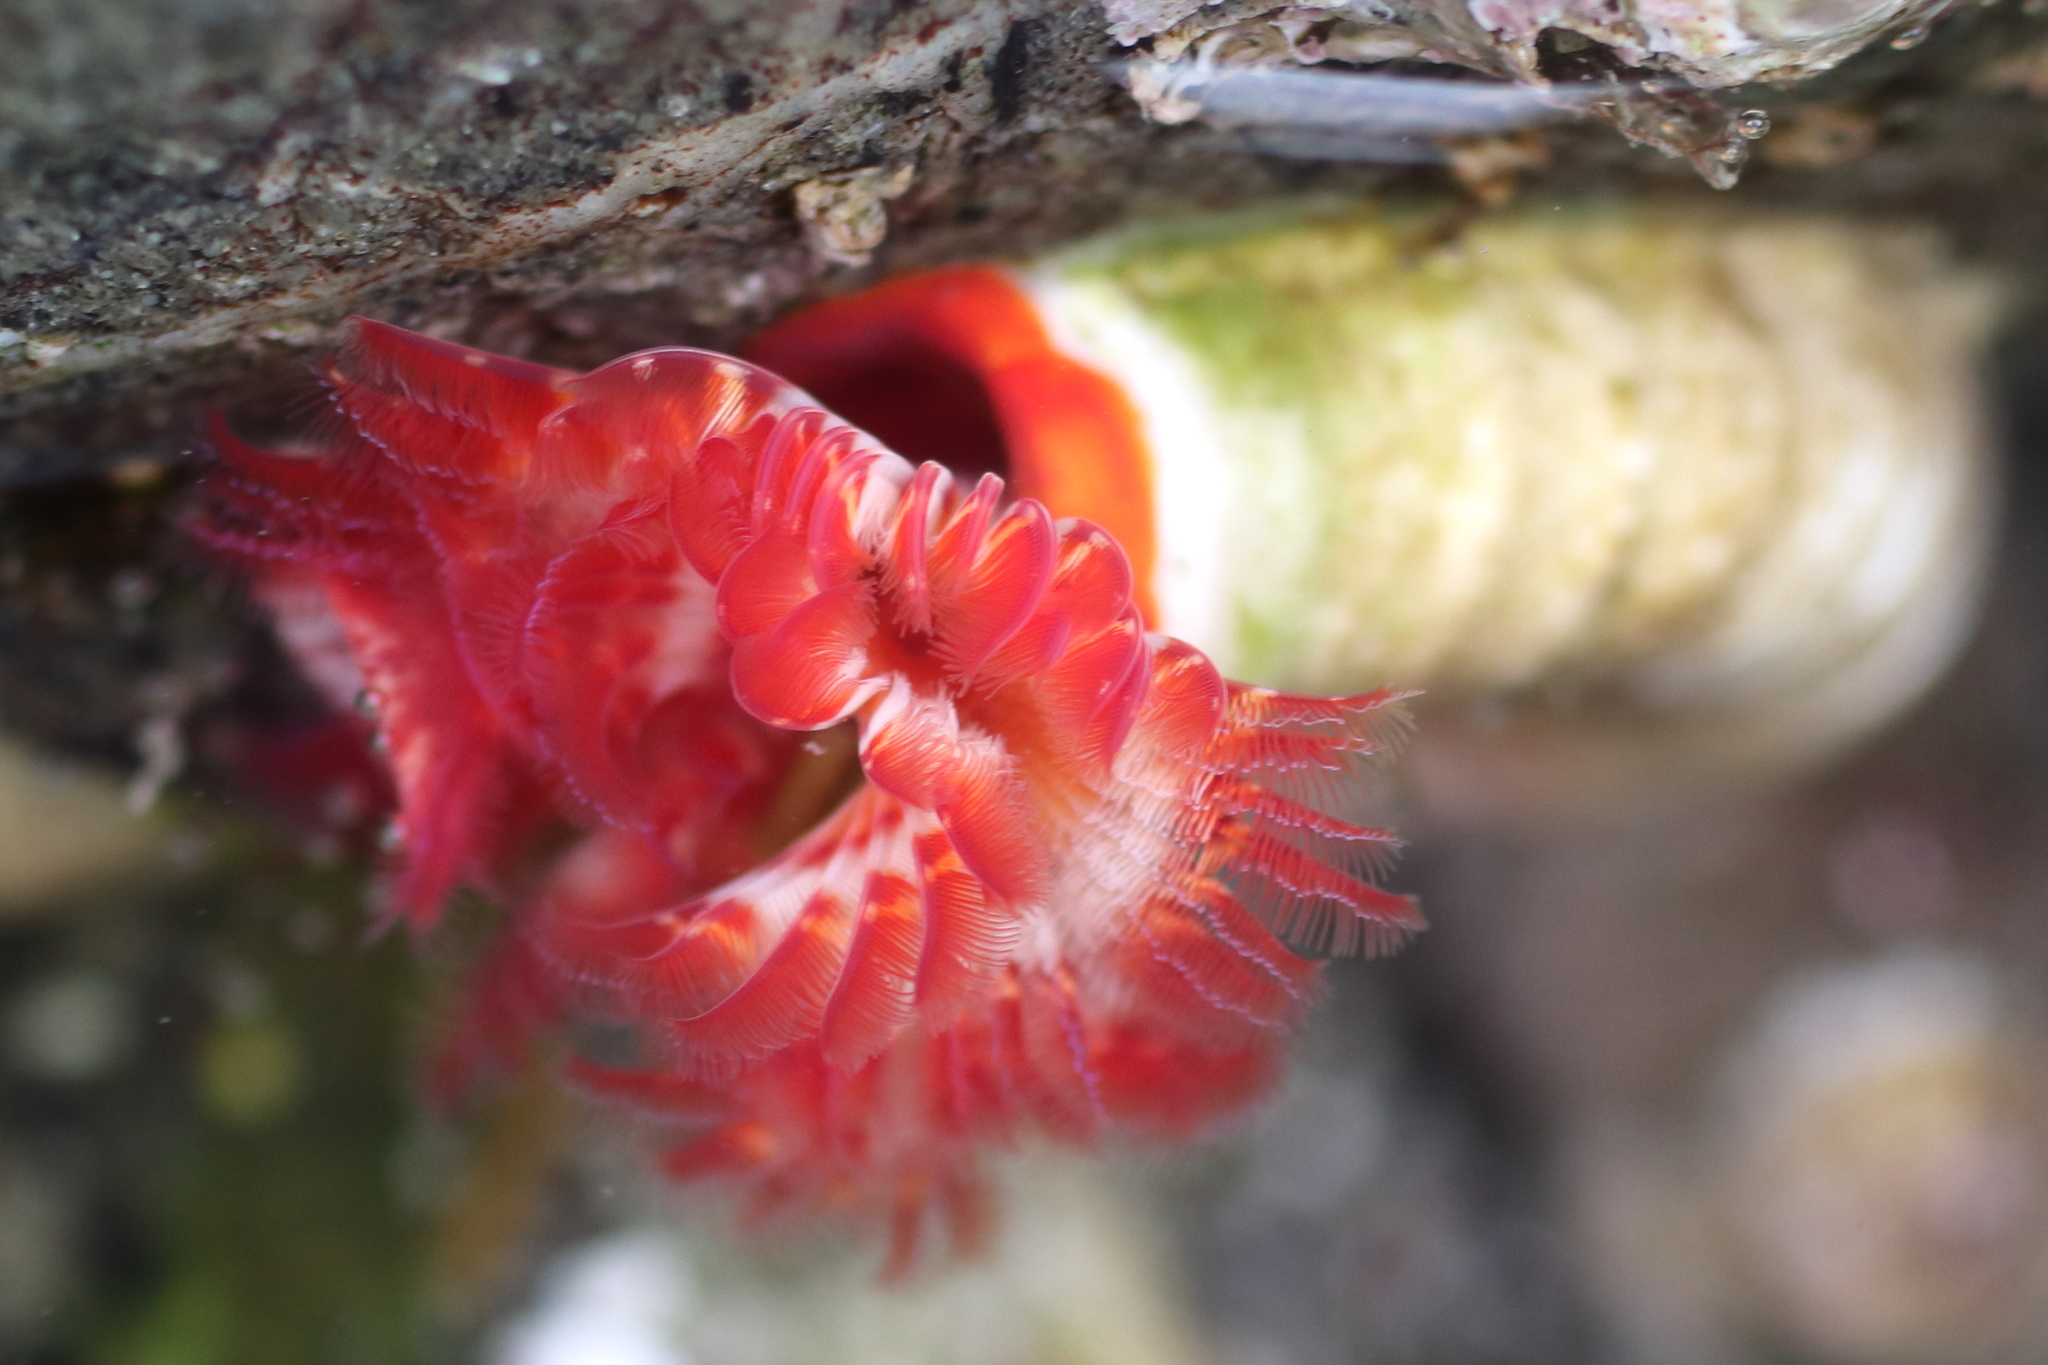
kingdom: Animalia
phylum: Annelida
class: Polychaeta
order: Sabellida
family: Serpulidae
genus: Serpula
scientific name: Serpula columbiana
